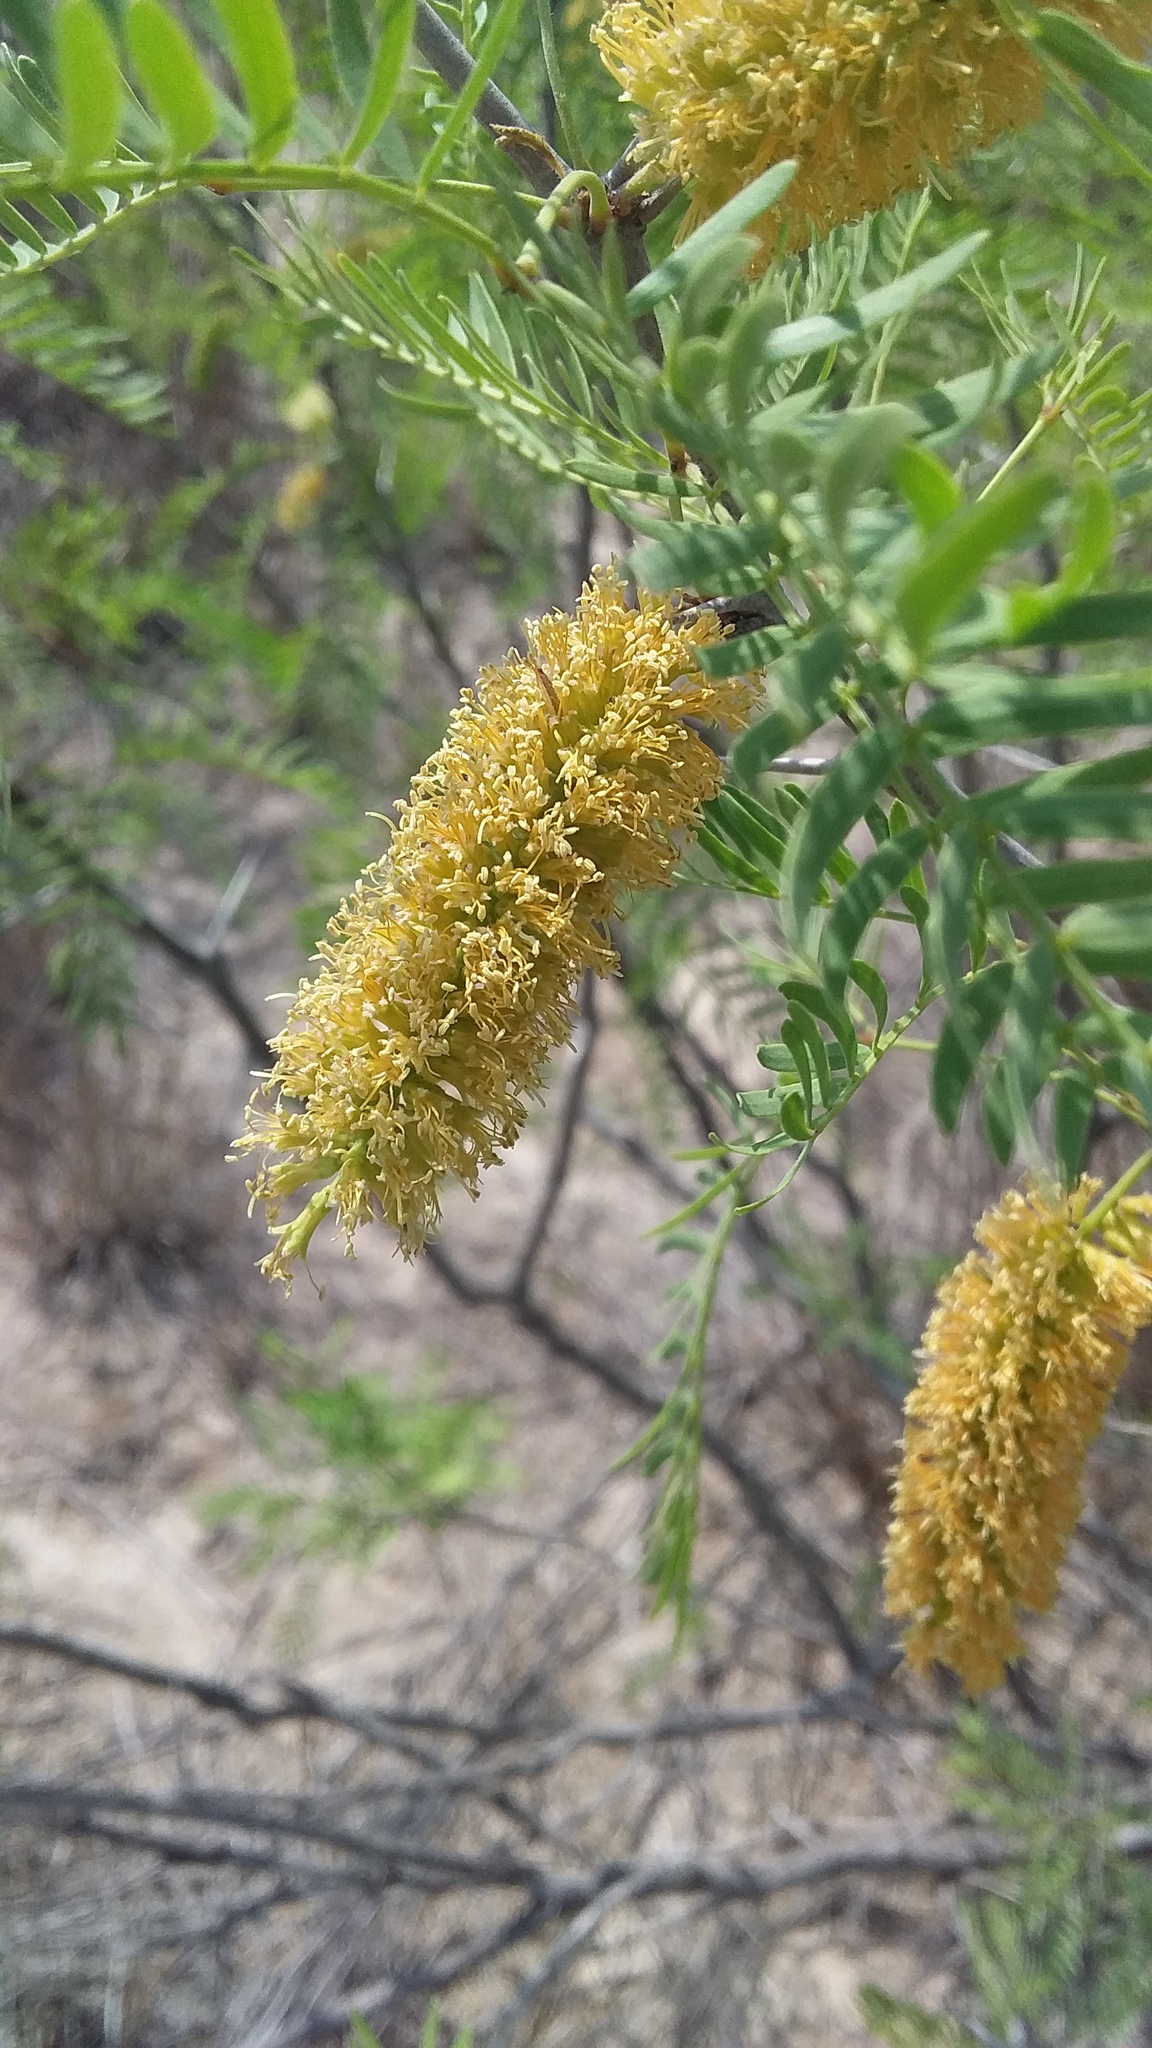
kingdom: Plantae
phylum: Tracheophyta
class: Magnoliopsida
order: Fabales
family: Fabaceae
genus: Prosopis
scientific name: Prosopis glandulosa
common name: Honey mesquite
